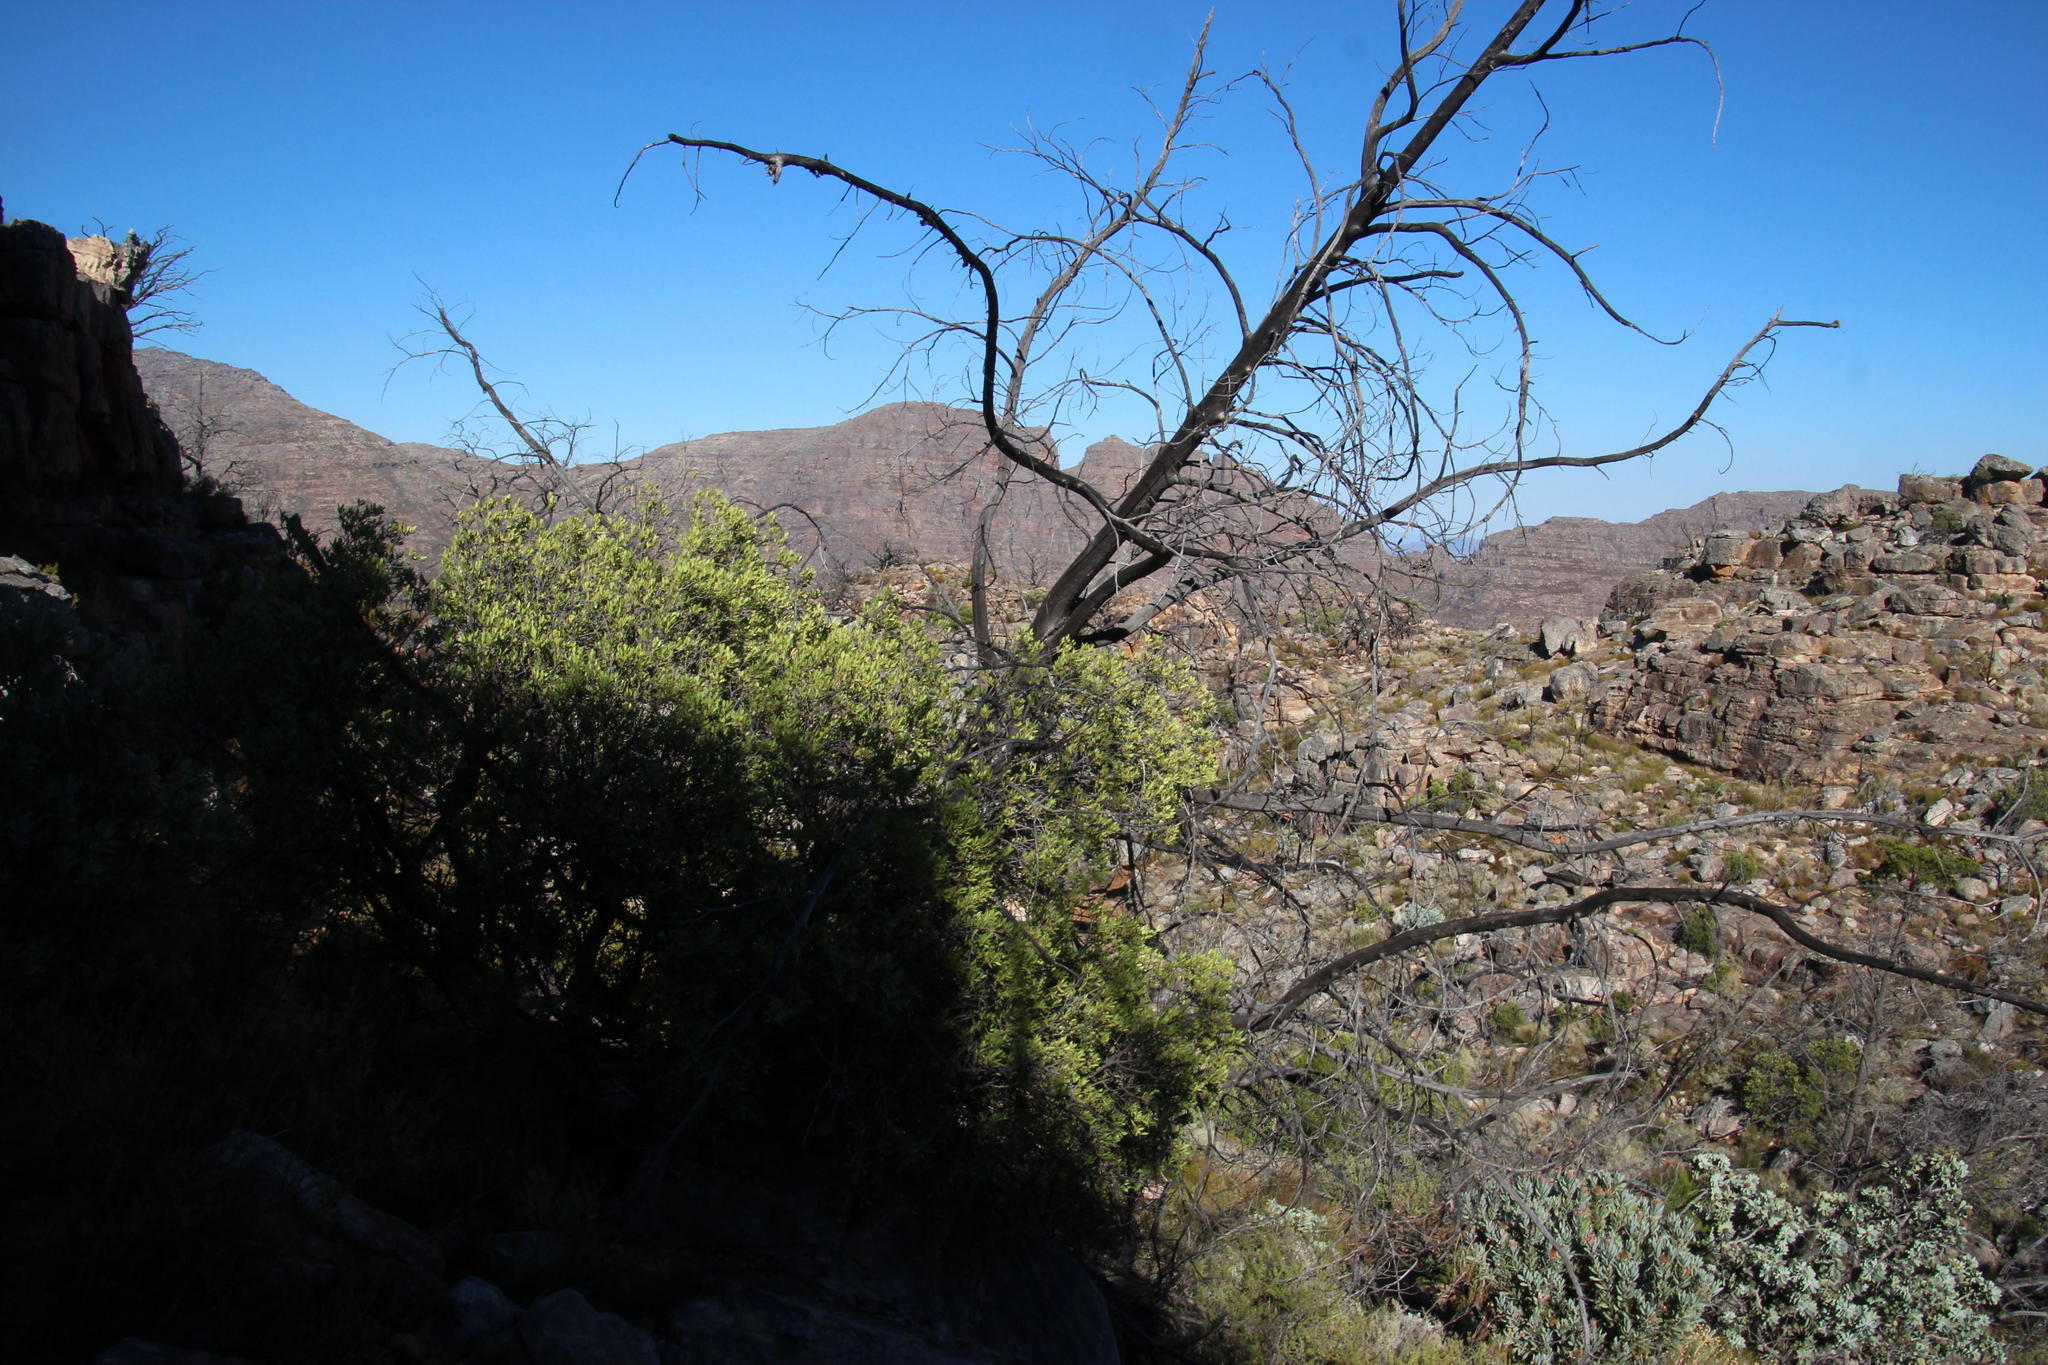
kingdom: Plantae
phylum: Tracheophyta
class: Magnoliopsida
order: Celastrales
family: Celastraceae
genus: Gymnosporia
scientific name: Gymnosporia laurina
